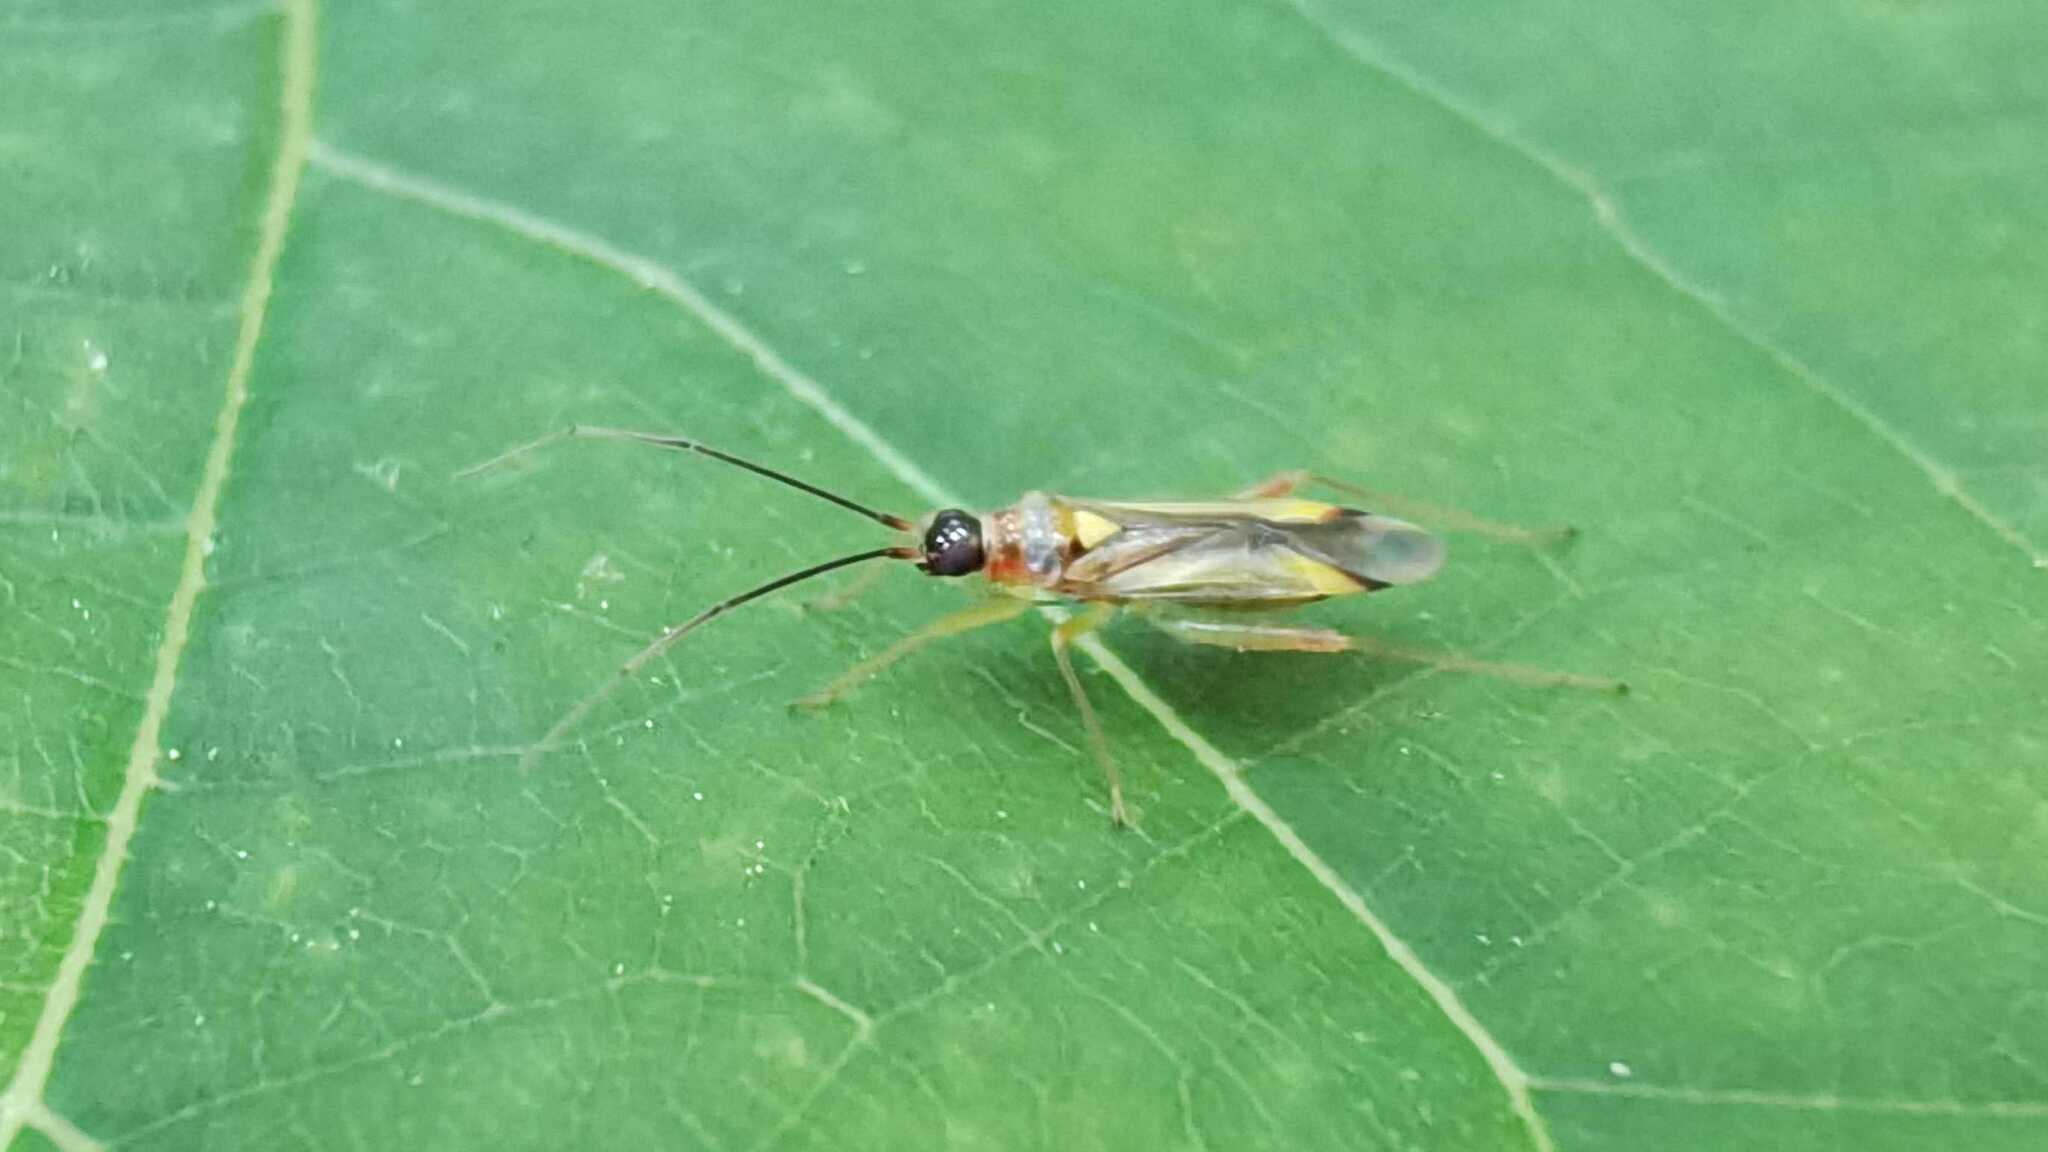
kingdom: Animalia
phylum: Arthropoda
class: Insecta
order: Hemiptera
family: Miridae
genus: Campyloneura
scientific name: Campyloneura virgula
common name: Predatory bug
